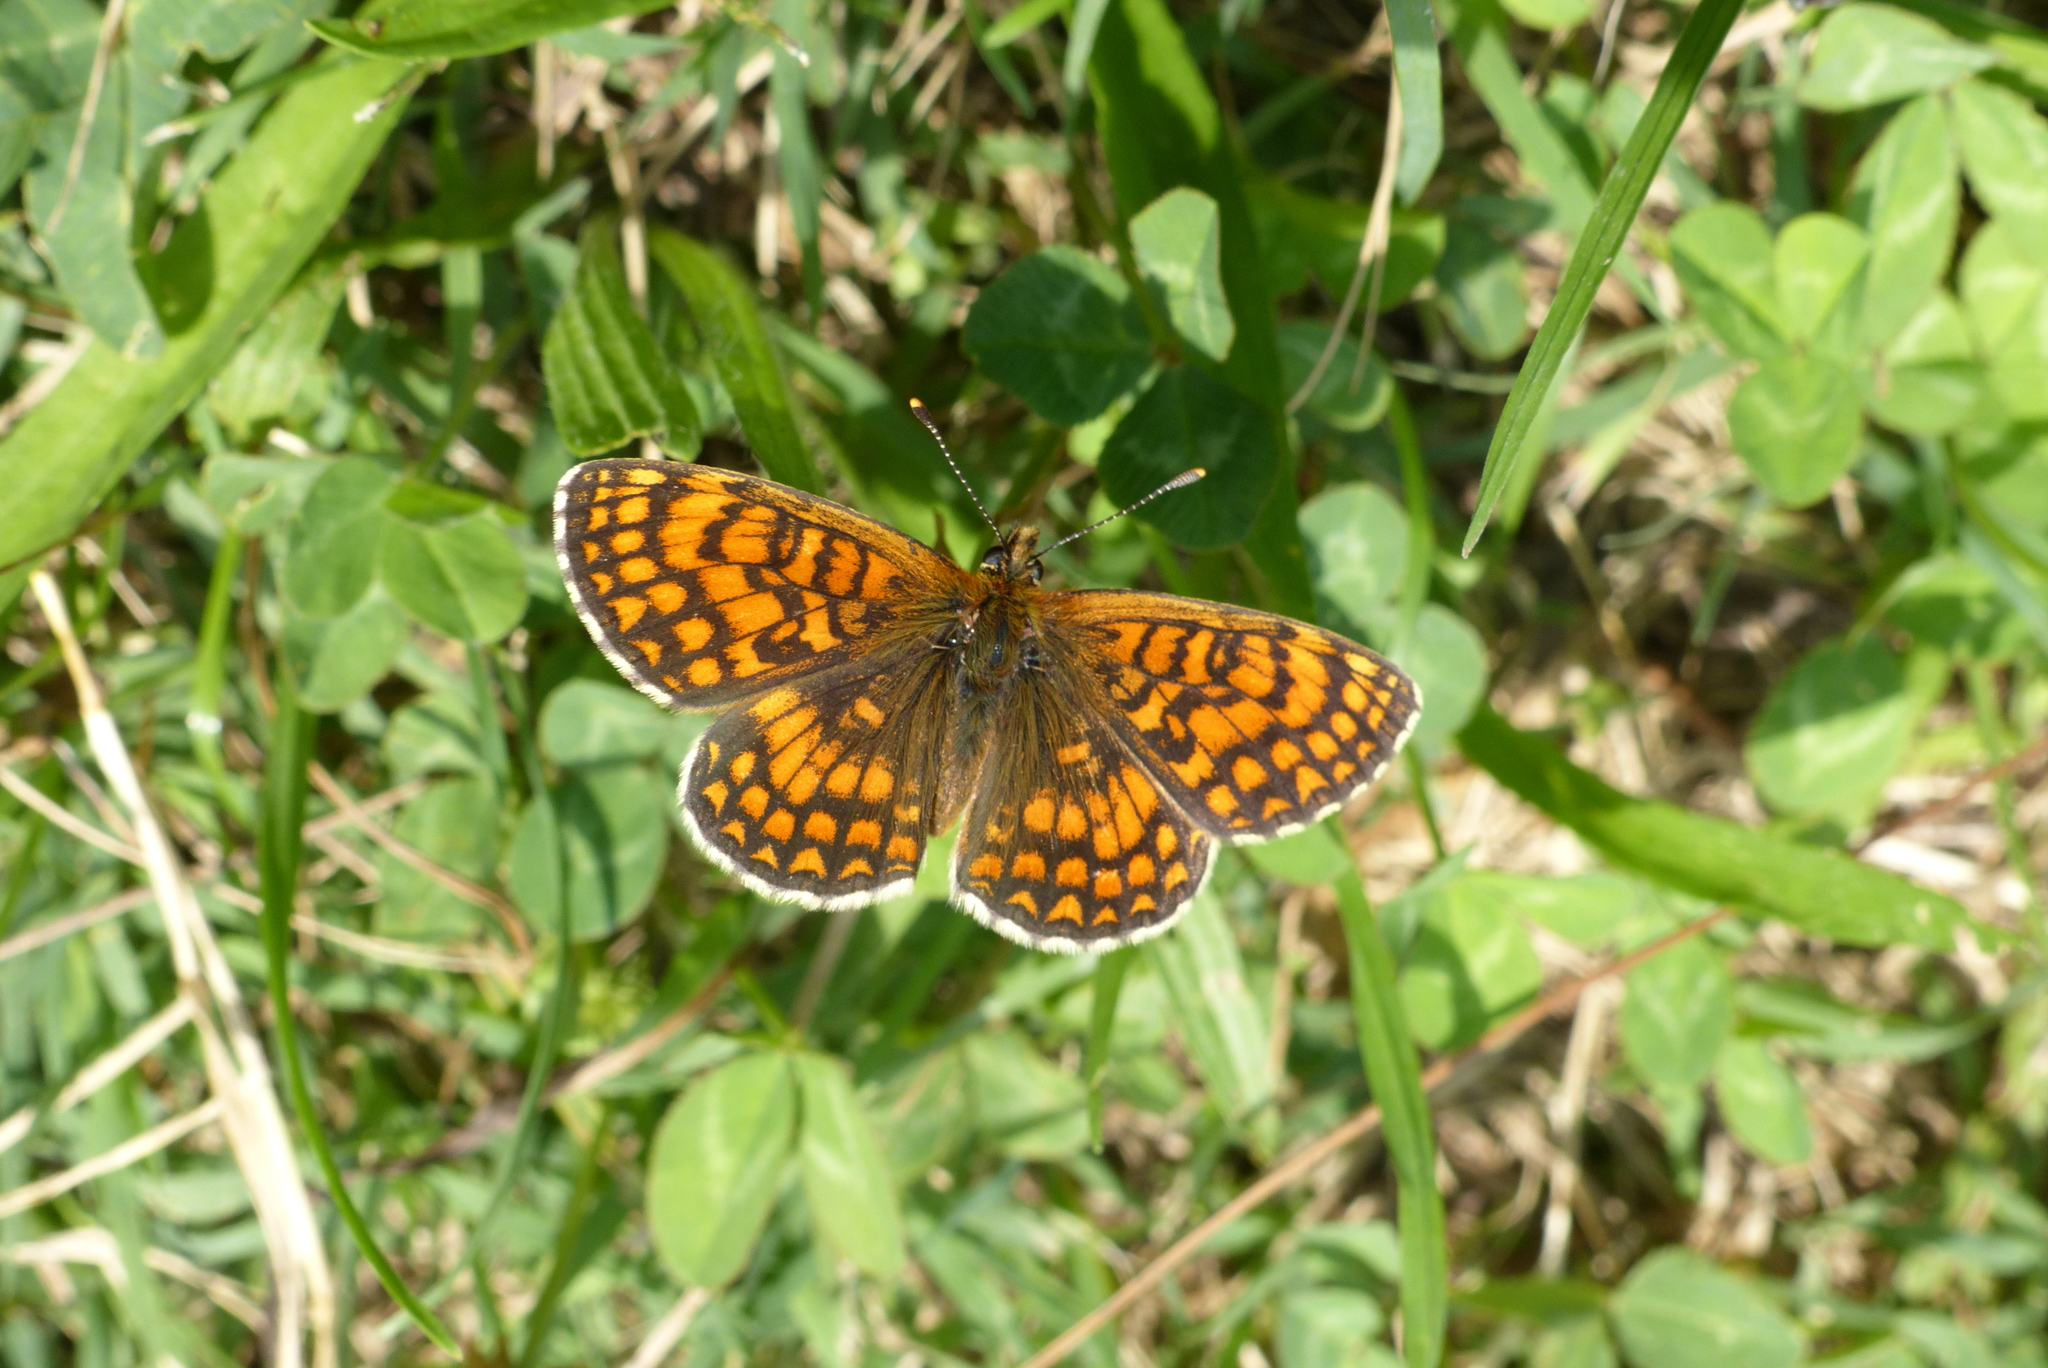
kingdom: Animalia
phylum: Arthropoda
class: Insecta
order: Lepidoptera
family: Nymphalidae
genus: Mellicta
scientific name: Mellicta athalia
